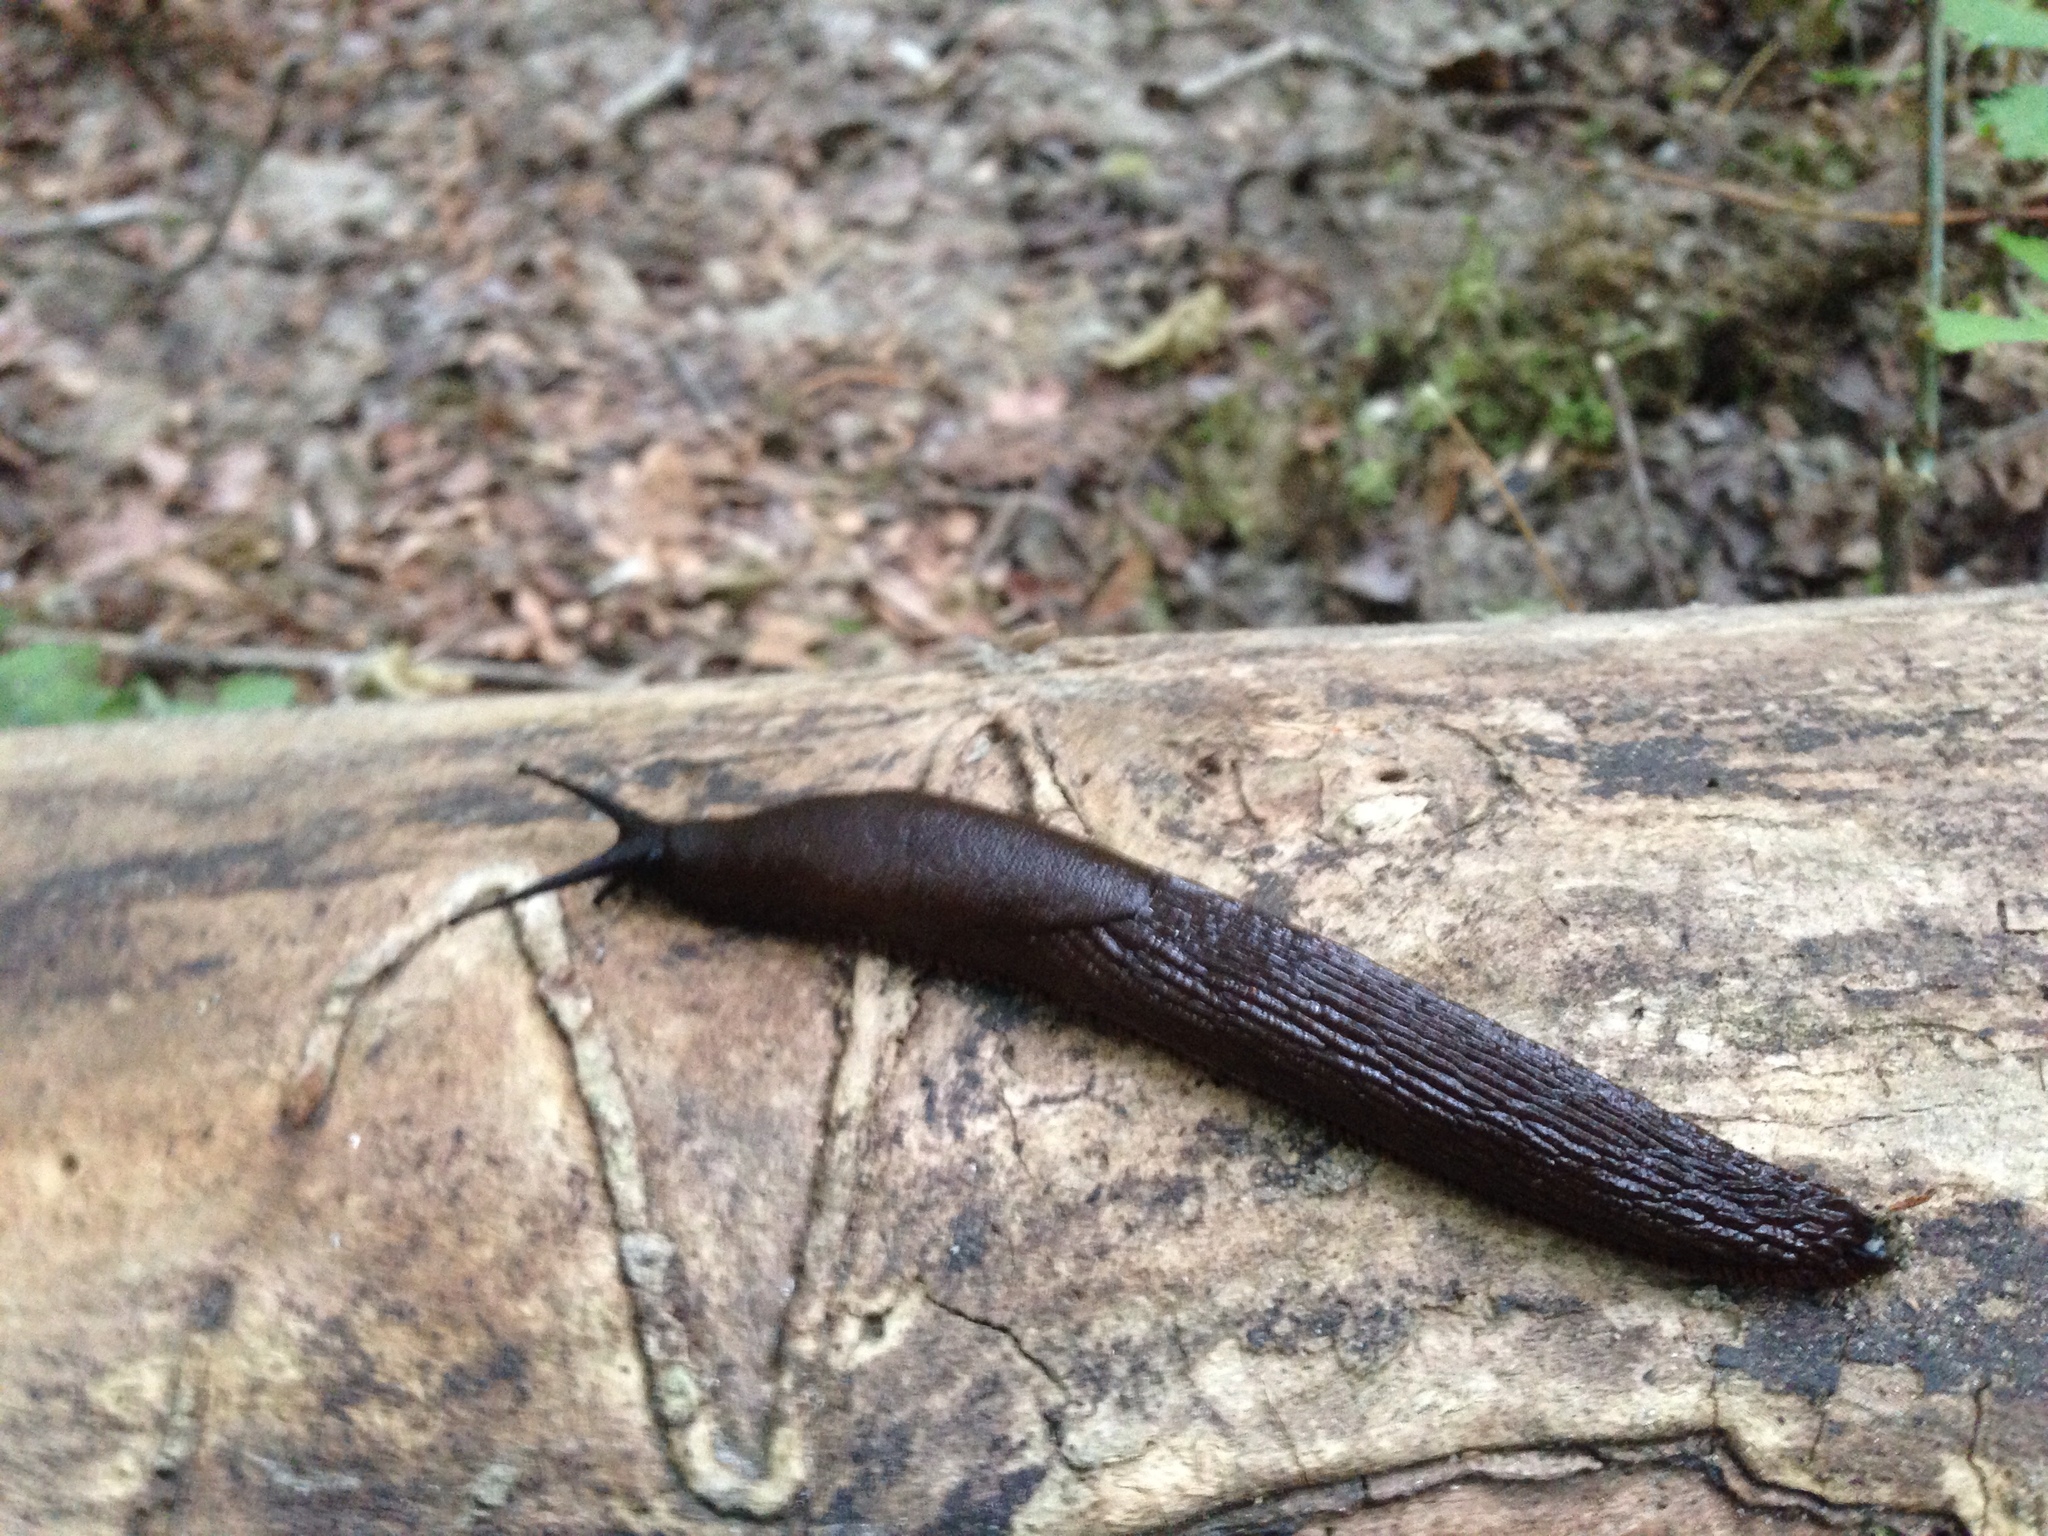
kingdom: Animalia
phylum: Mollusca
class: Gastropoda
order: Stylommatophora
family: Arionidae
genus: Arion
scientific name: Arion
